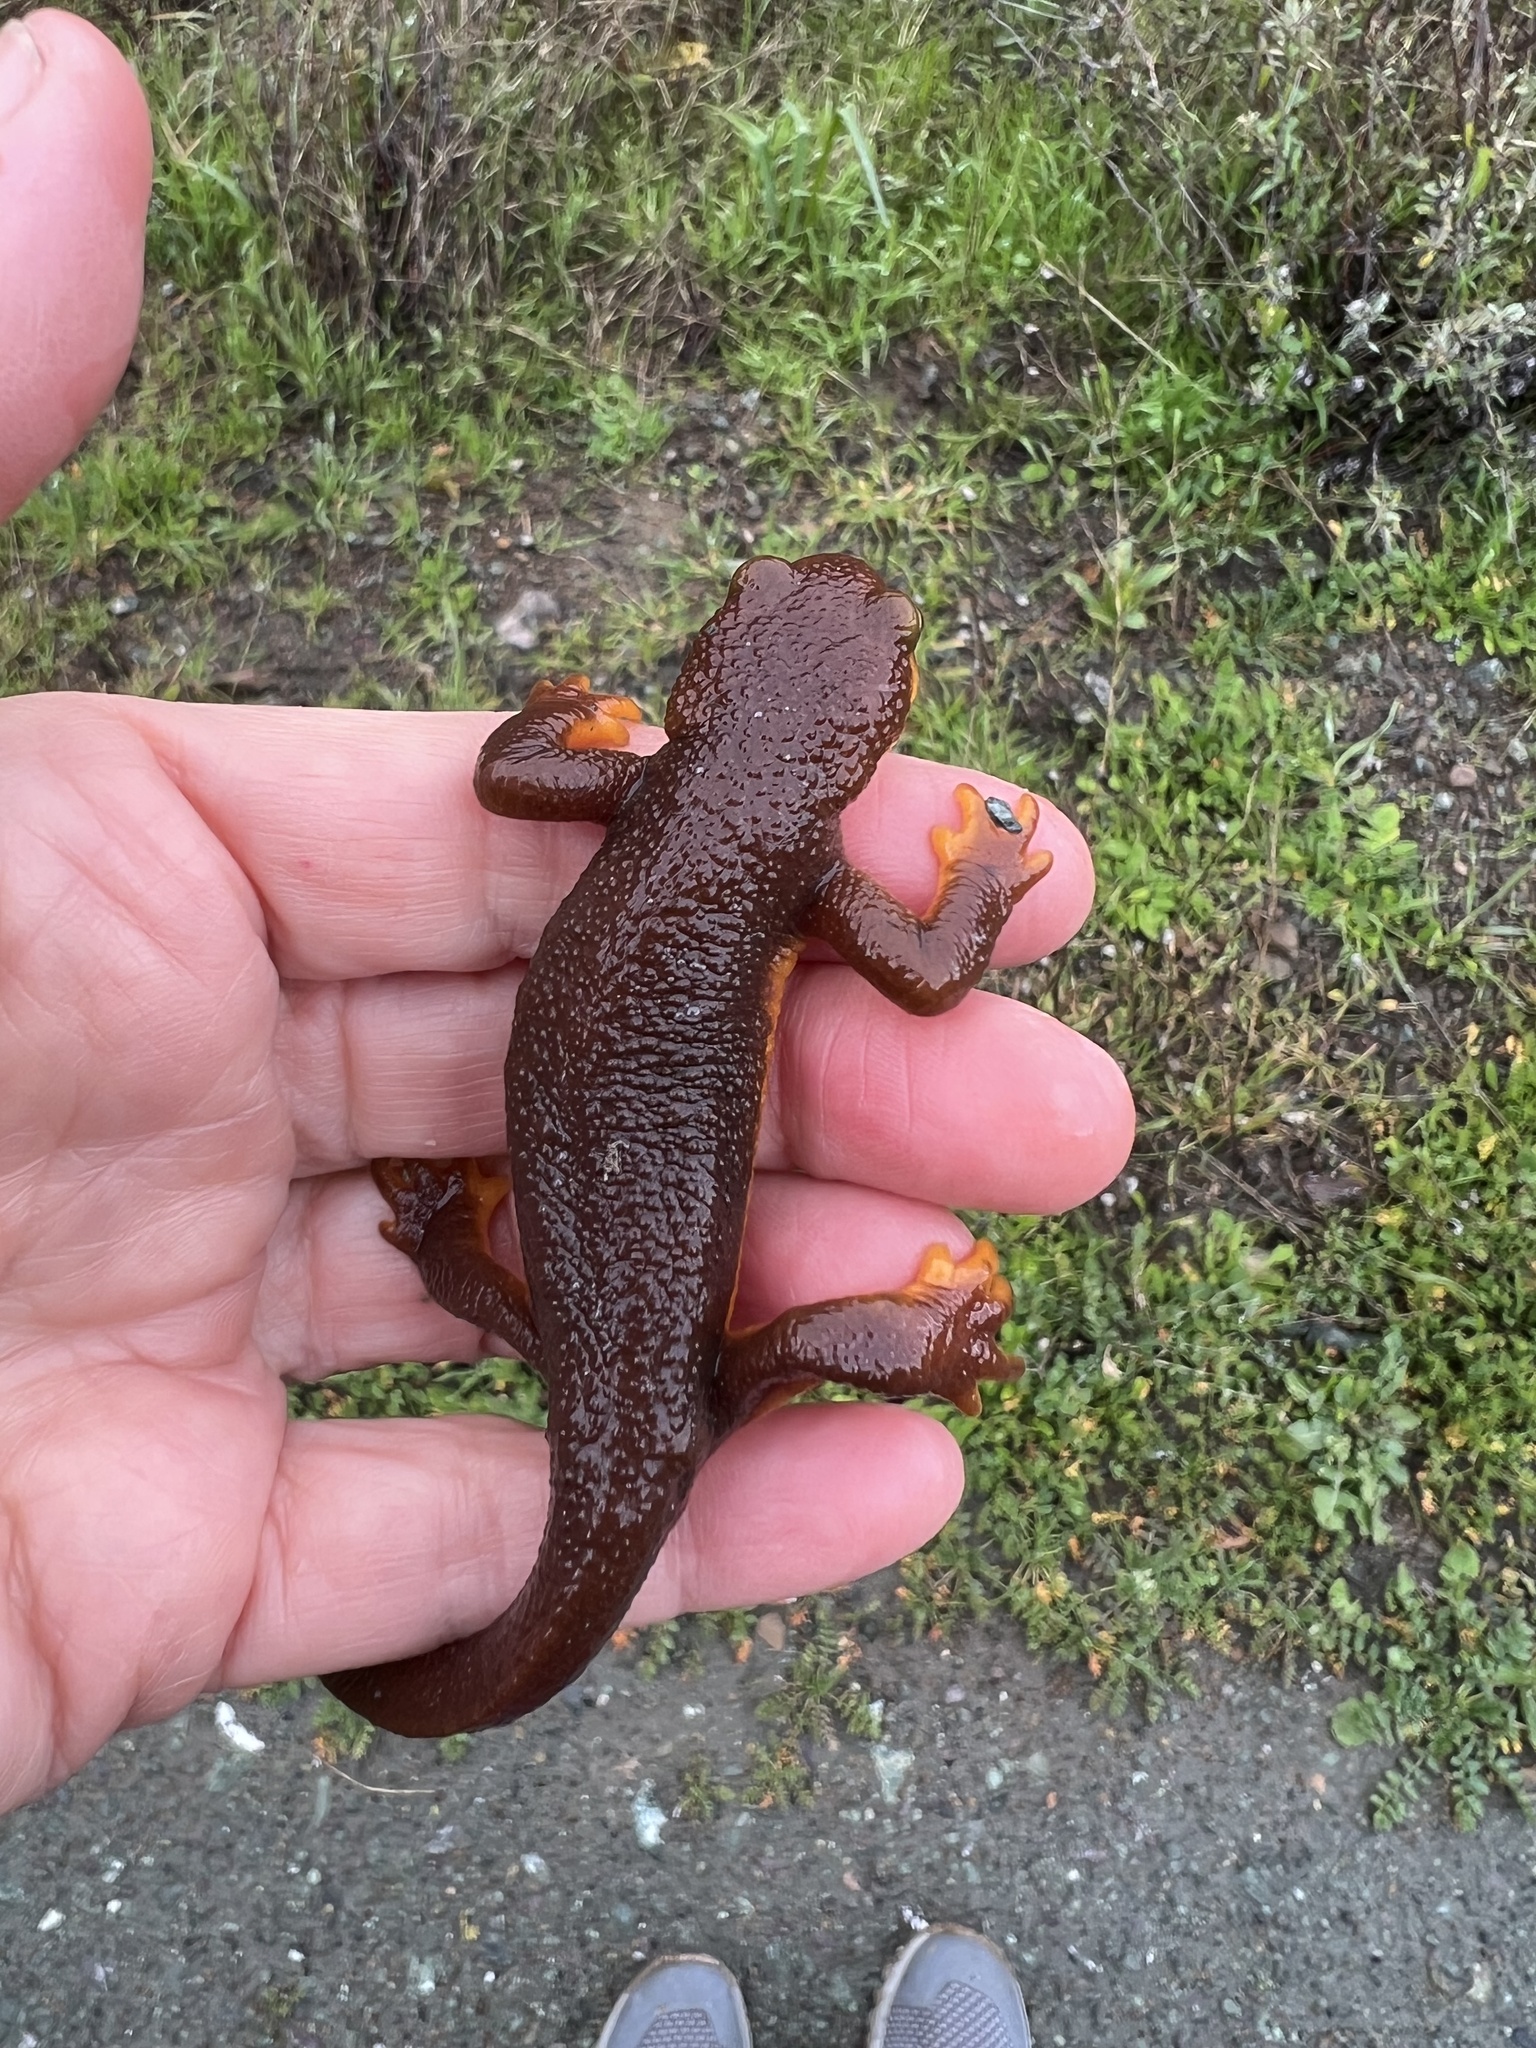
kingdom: Animalia
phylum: Chordata
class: Amphibia
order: Caudata
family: Salamandridae
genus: Taricha
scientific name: Taricha torosa
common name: California newt
